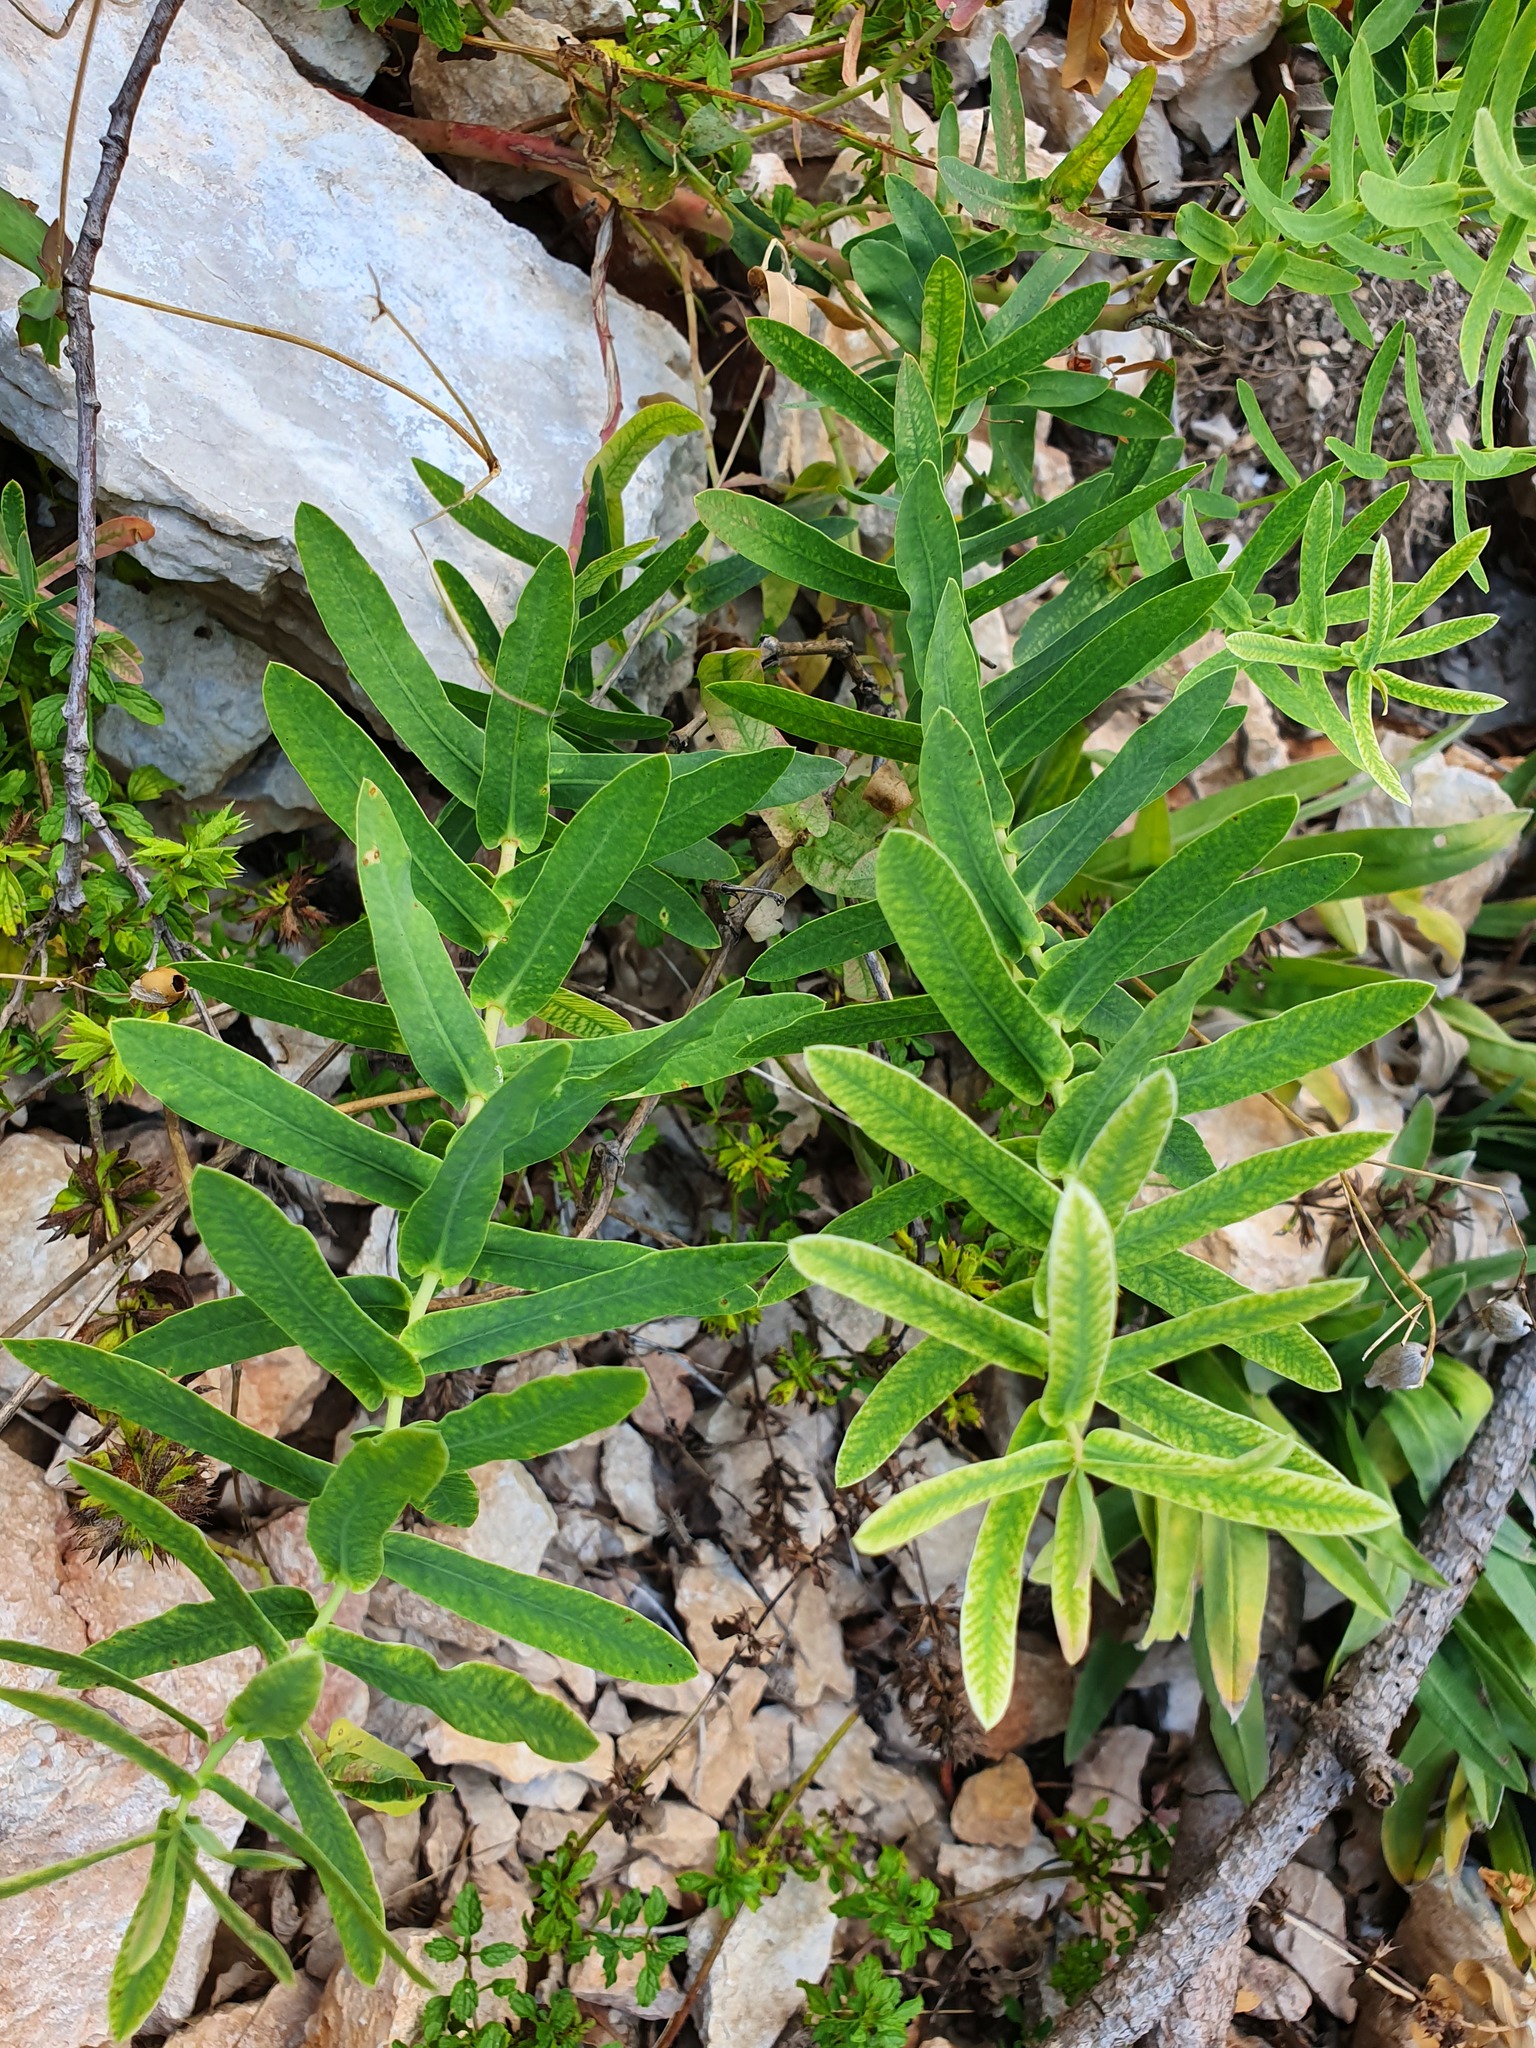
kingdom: Plantae
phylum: Tracheophyta
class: Magnoliopsida
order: Malpighiales
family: Euphorbiaceae
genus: Euphorbia
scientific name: Euphorbia agraria
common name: Urban spurge
